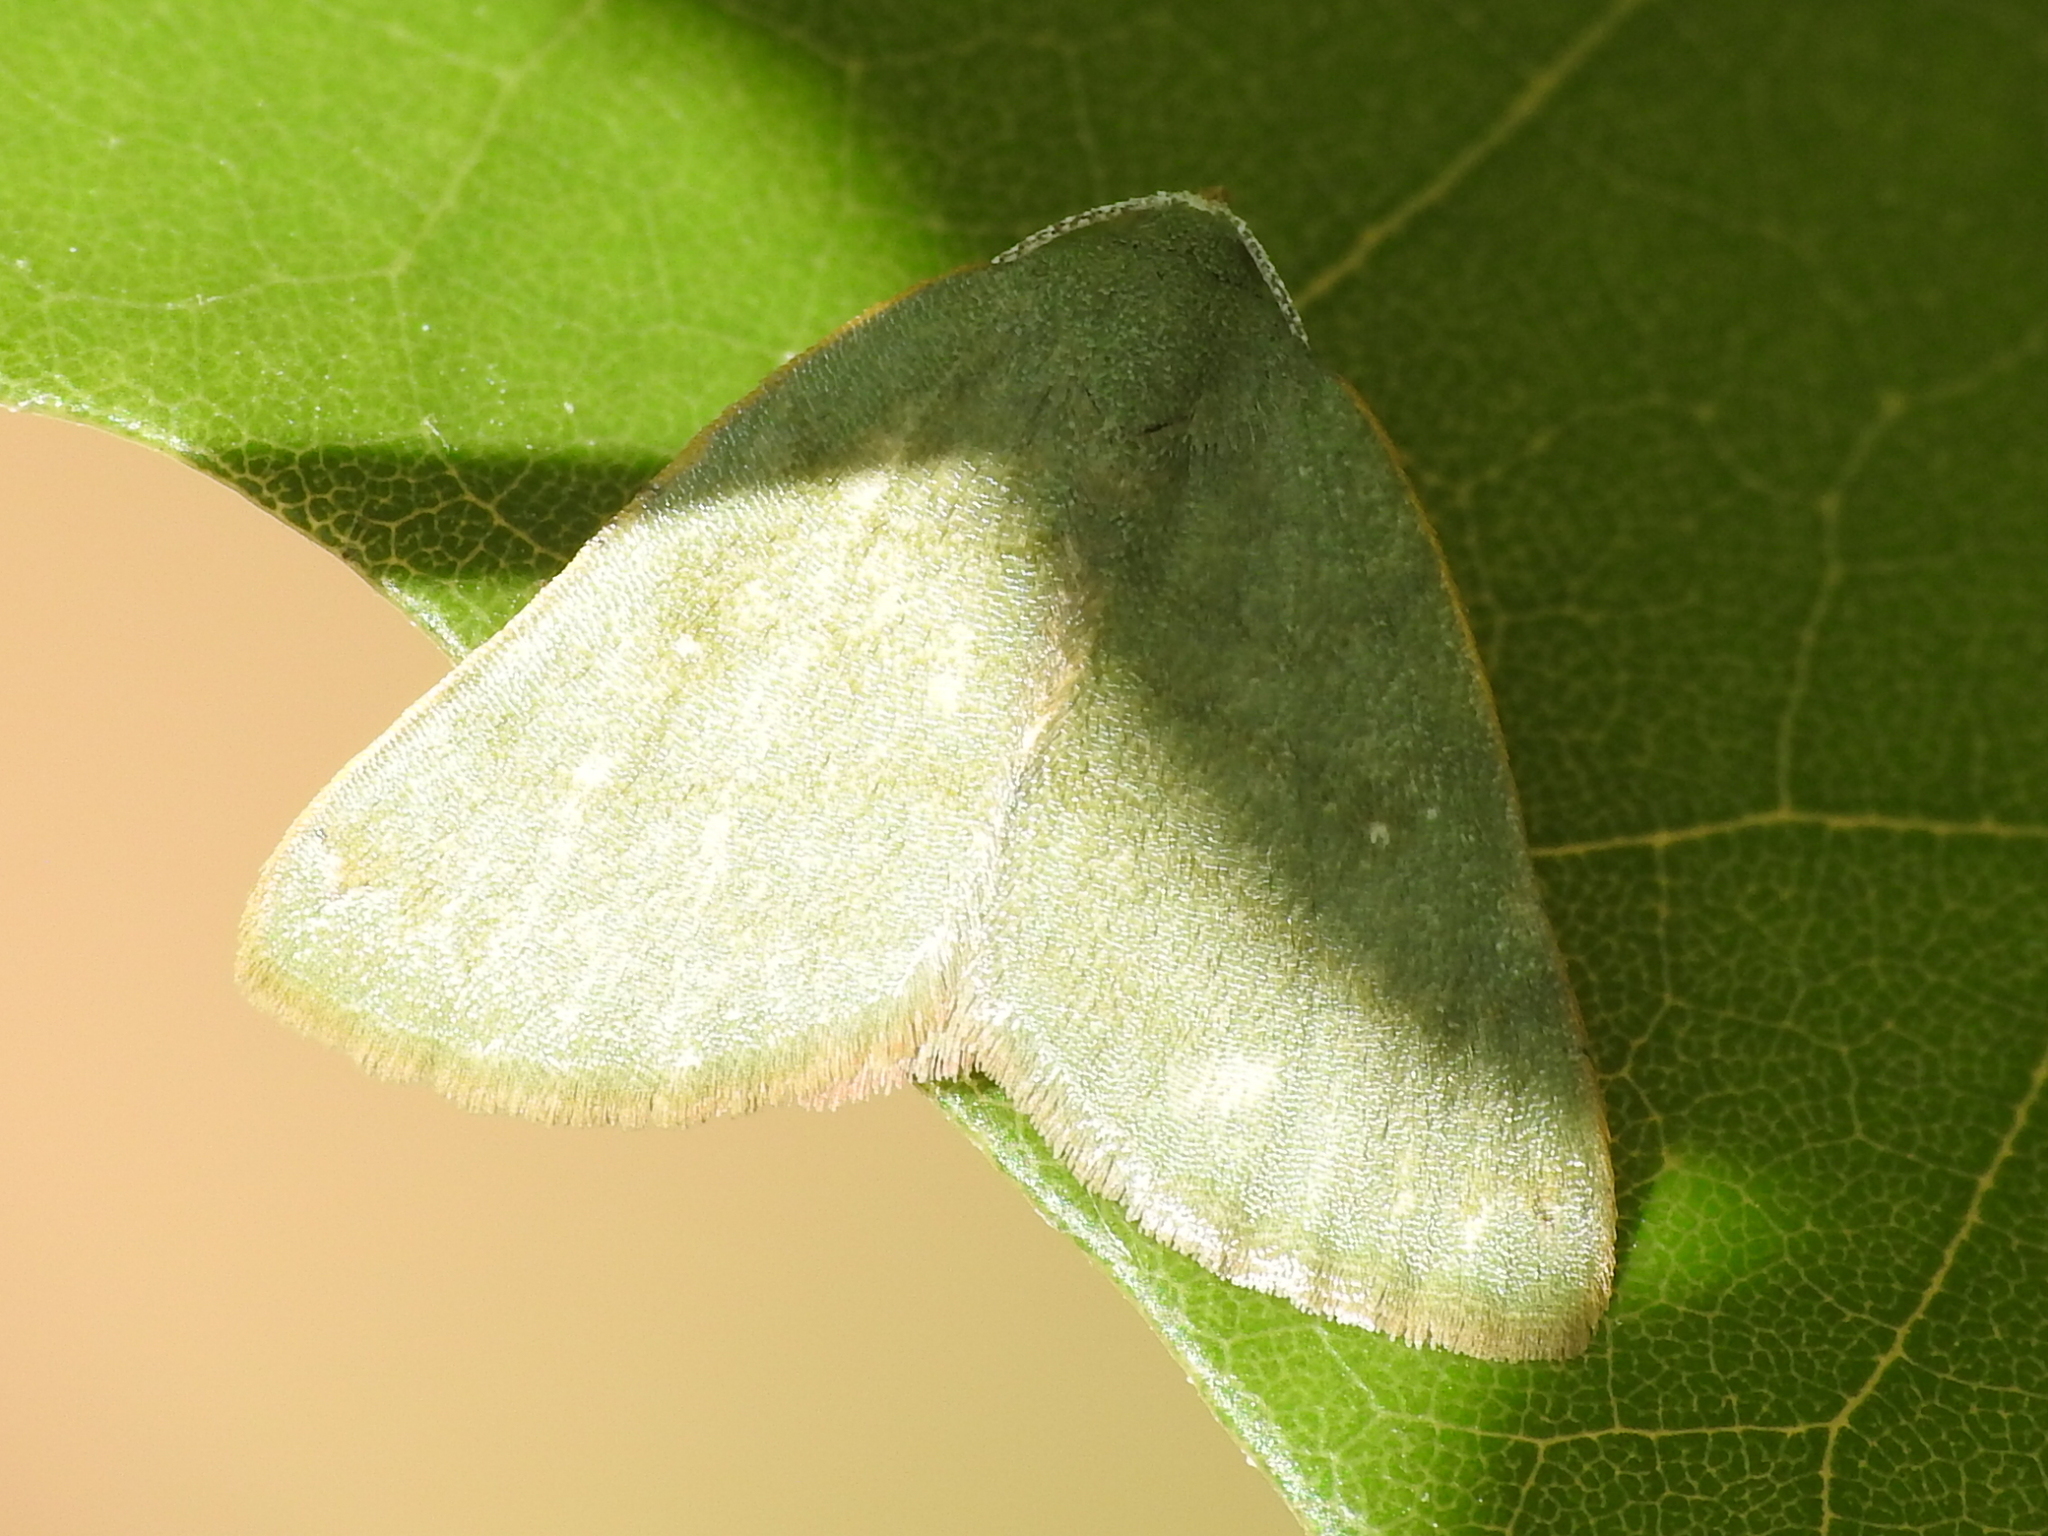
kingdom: Animalia
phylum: Arthropoda
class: Insecta
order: Lepidoptera
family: Geometridae
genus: Chloraspilates
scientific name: Chloraspilates bicoloraria
